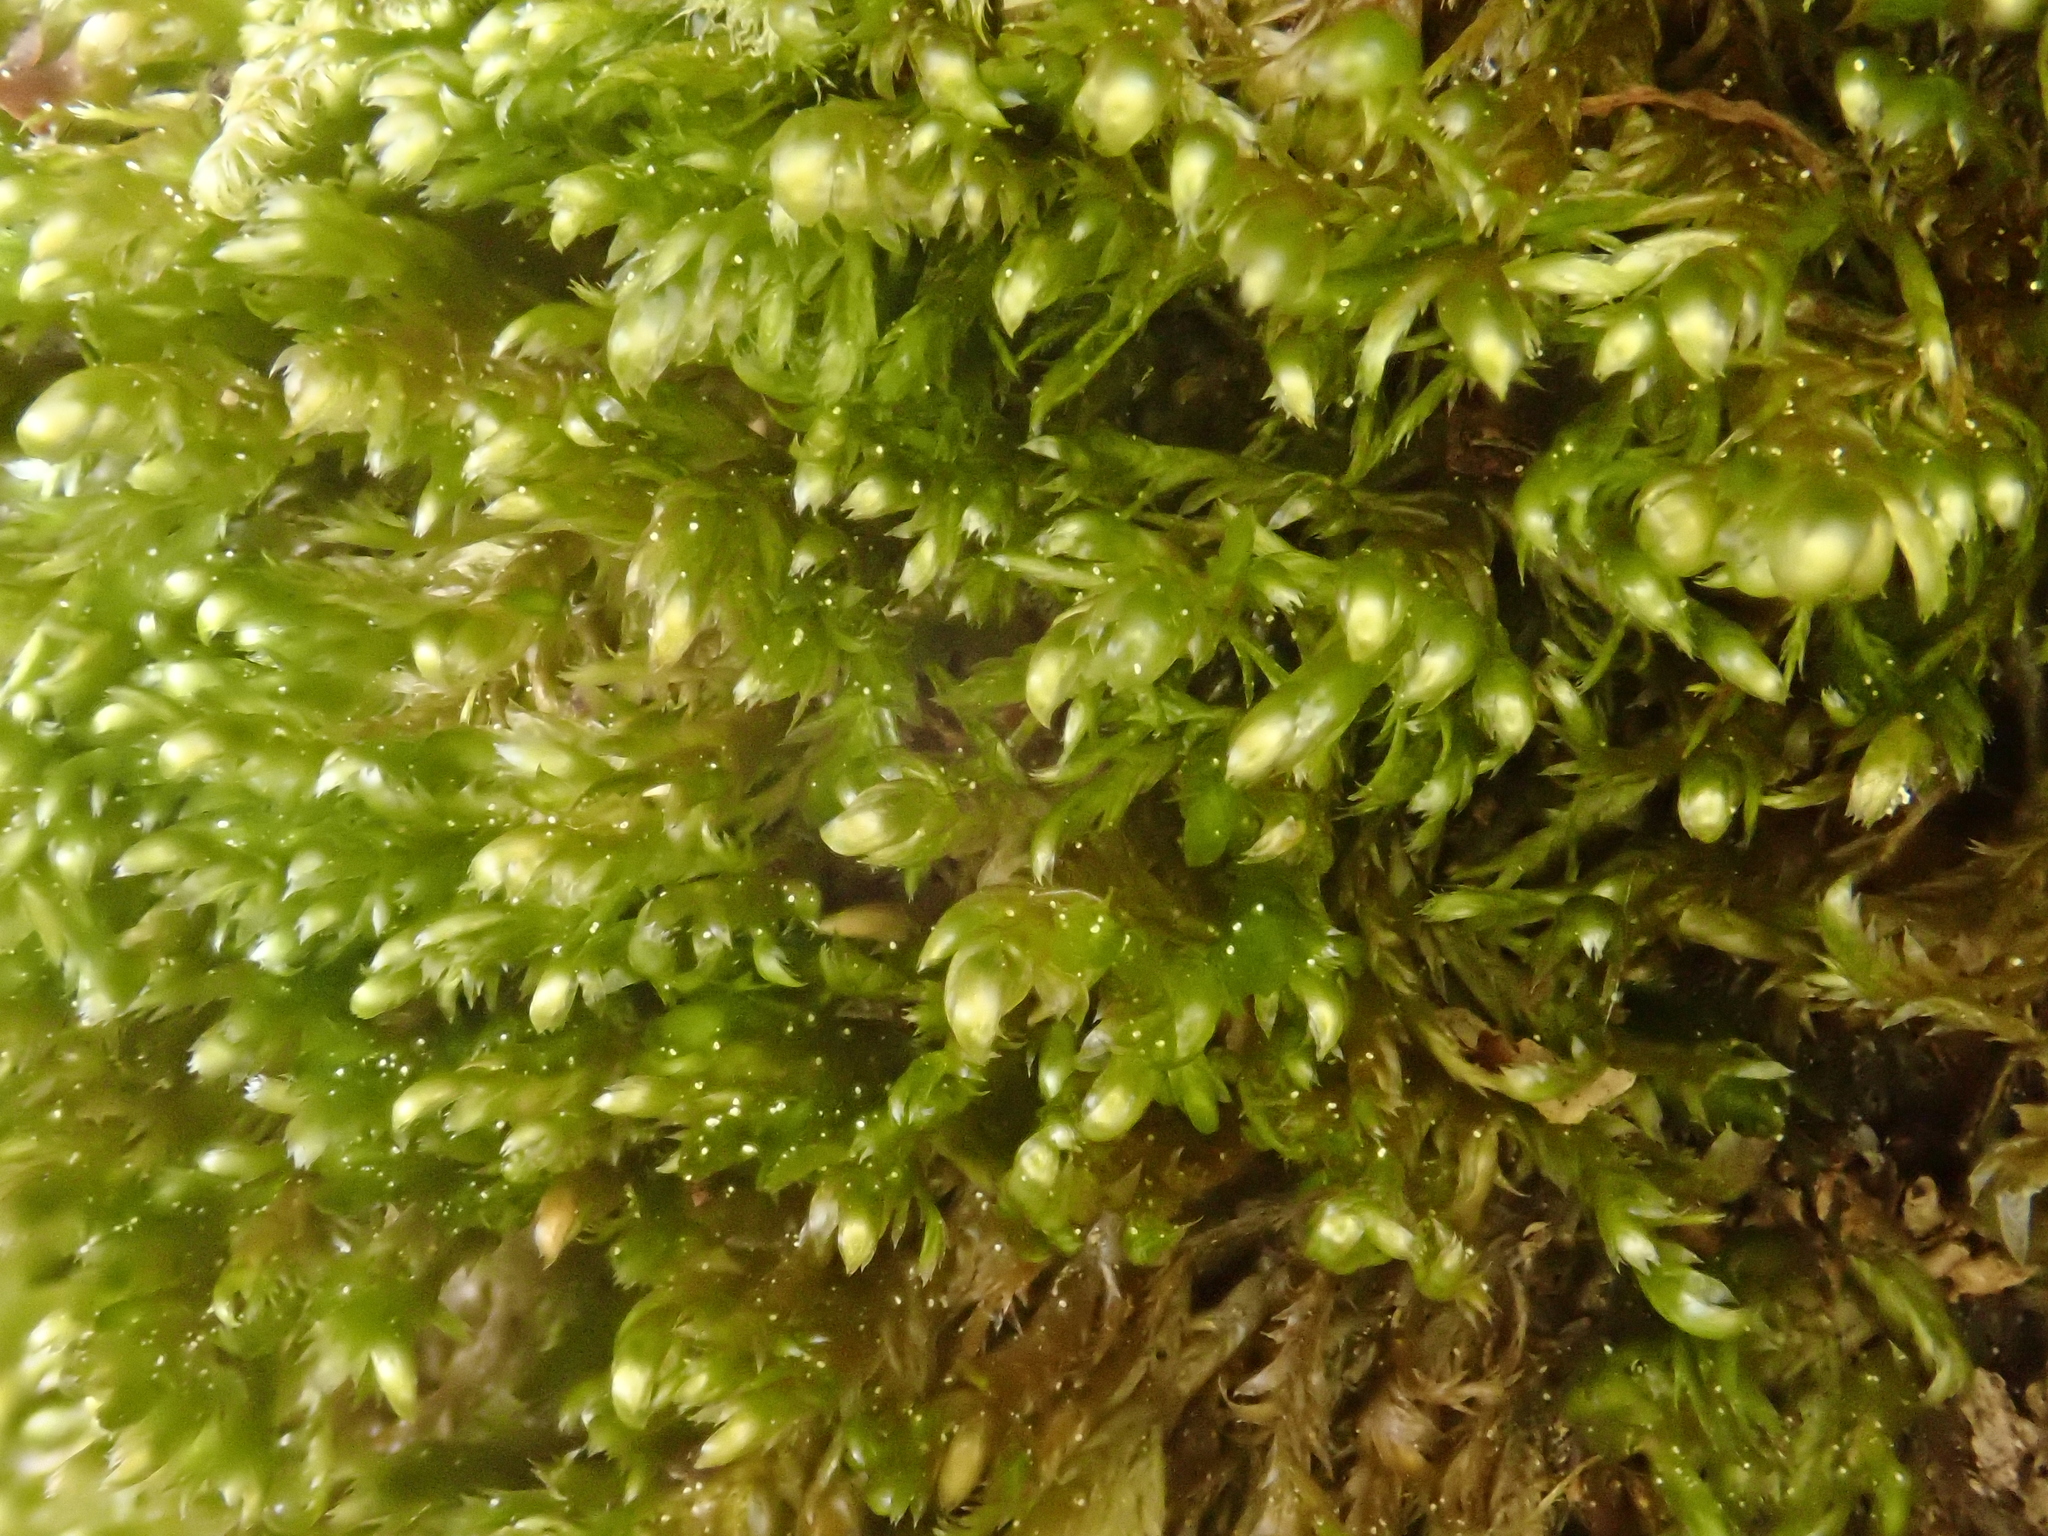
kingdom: Plantae
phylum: Bryophyta
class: Bryopsida
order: Hypnales
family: Neckeraceae
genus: Alleniella
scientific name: Alleniella complanata
